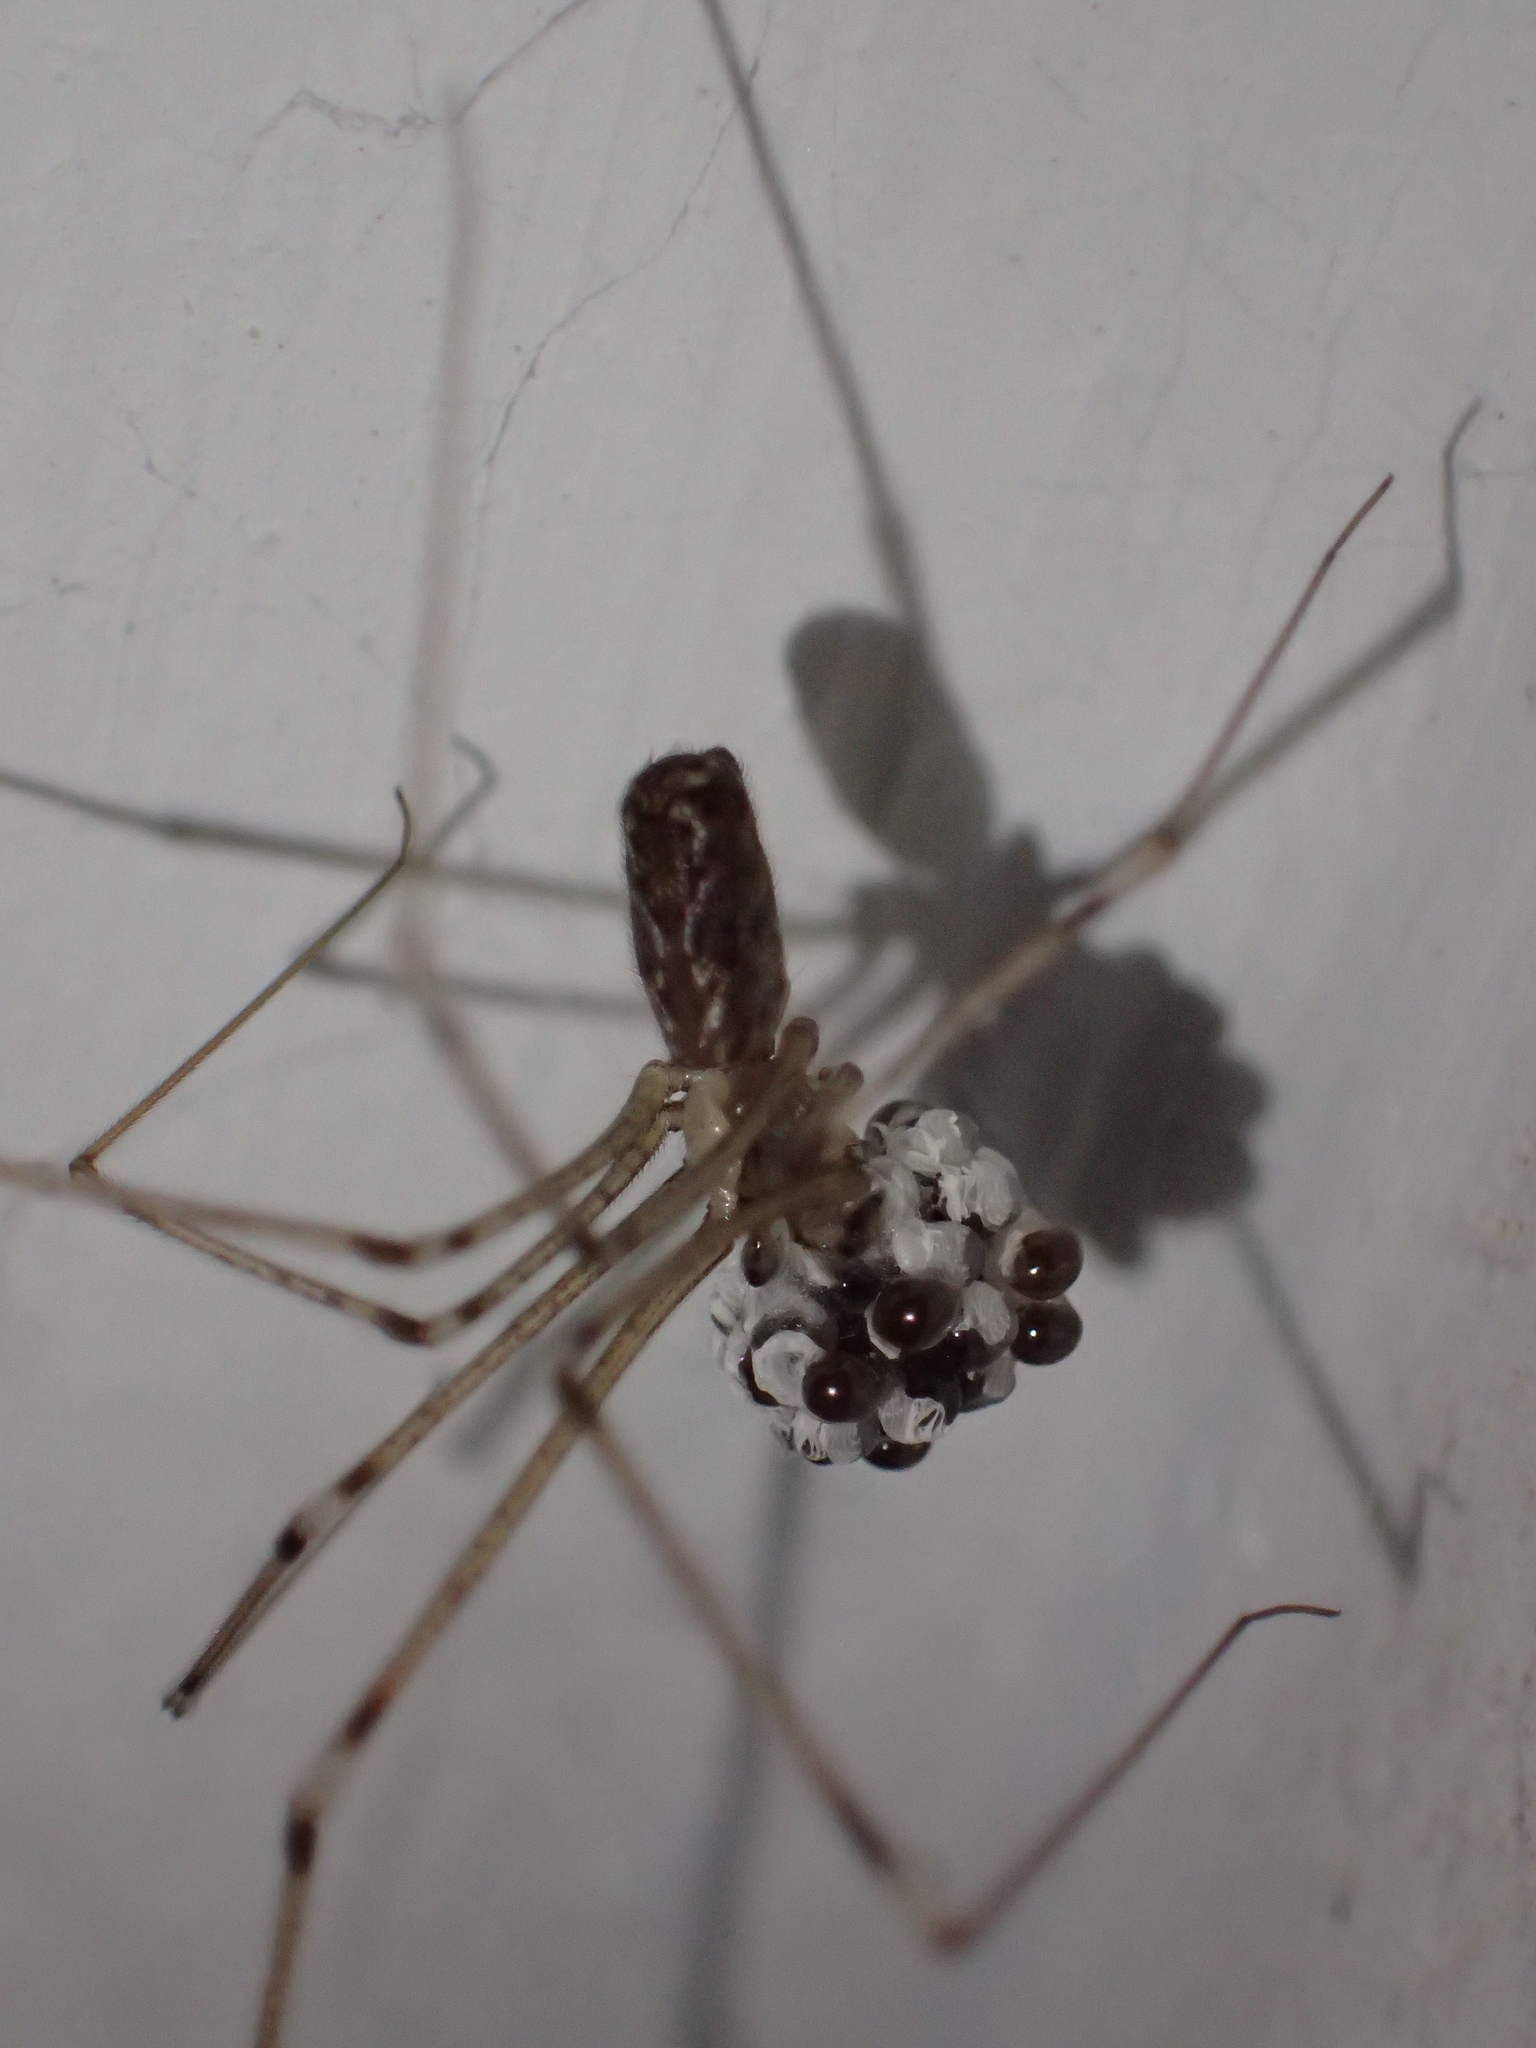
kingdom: Animalia
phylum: Arthropoda
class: Arachnida
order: Araneae
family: Pholcidae
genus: Holocnemus
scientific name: Holocnemus pluchei
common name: Marbled cellar spider
